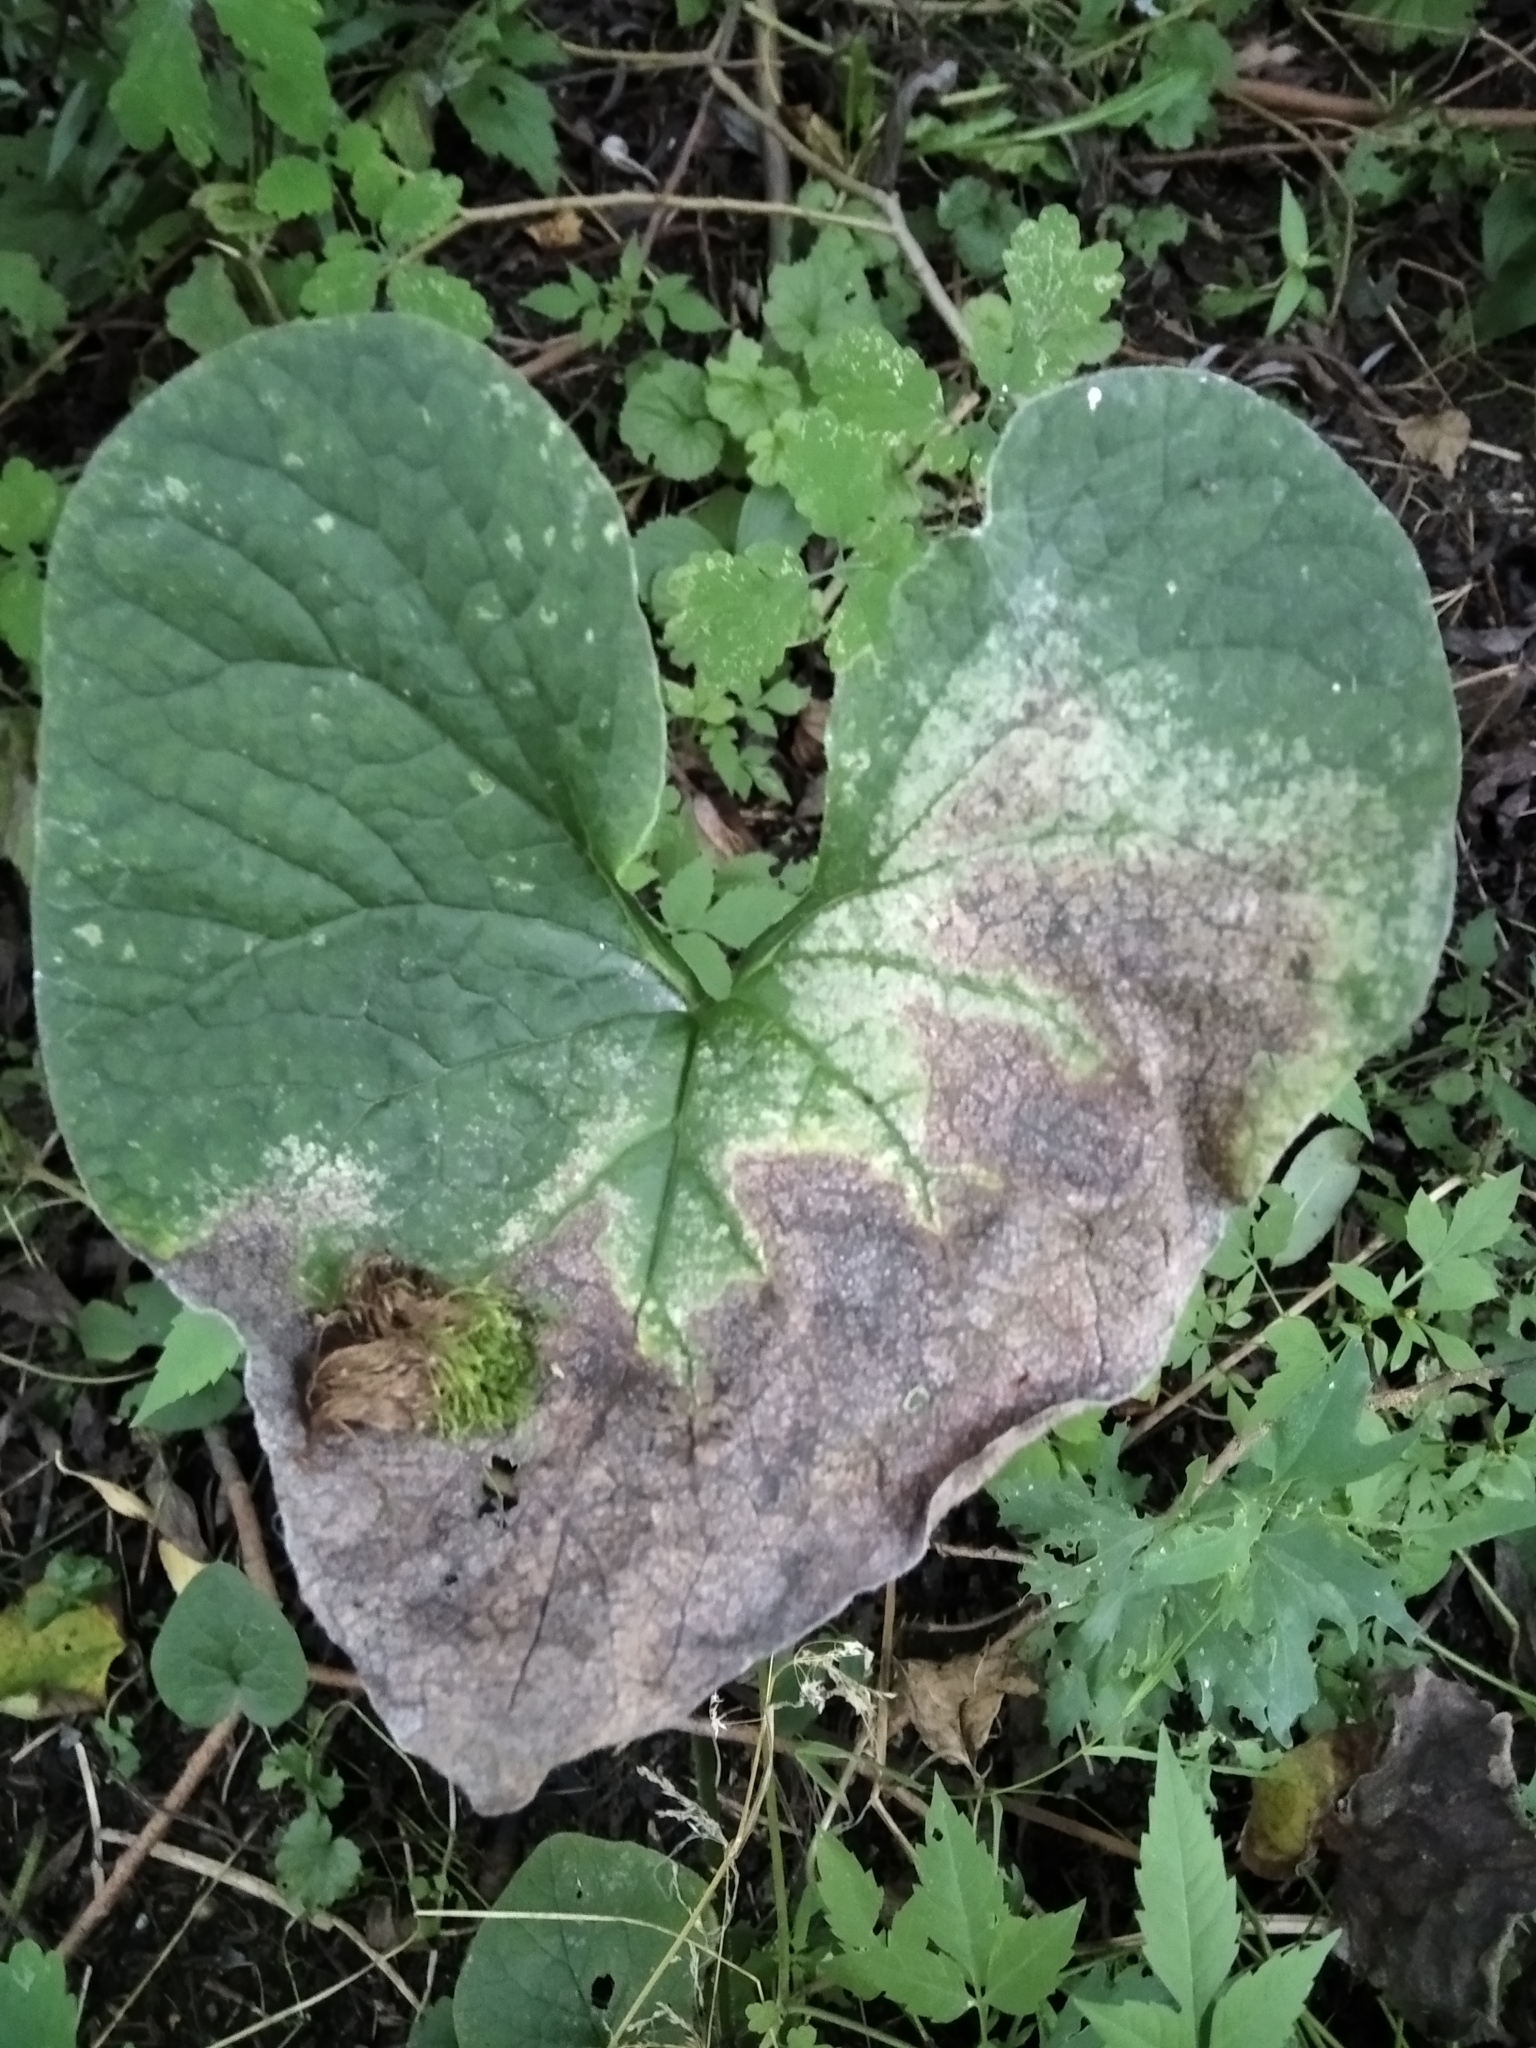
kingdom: Plantae
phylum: Tracheophyta
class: Magnoliopsida
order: Boraginales
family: Boraginaceae
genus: Brunnera
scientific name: Brunnera sibirica
